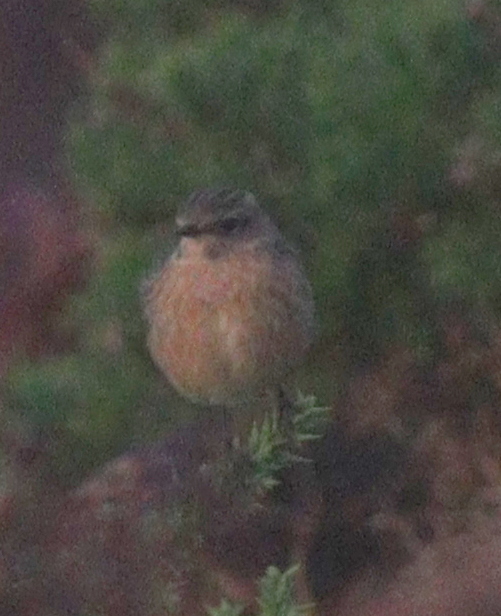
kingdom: Animalia
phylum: Chordata
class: Aves
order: Passeriformes
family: Muscicapidae
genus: Saxicola
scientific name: Saxicola rubicola
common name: European stonechat
